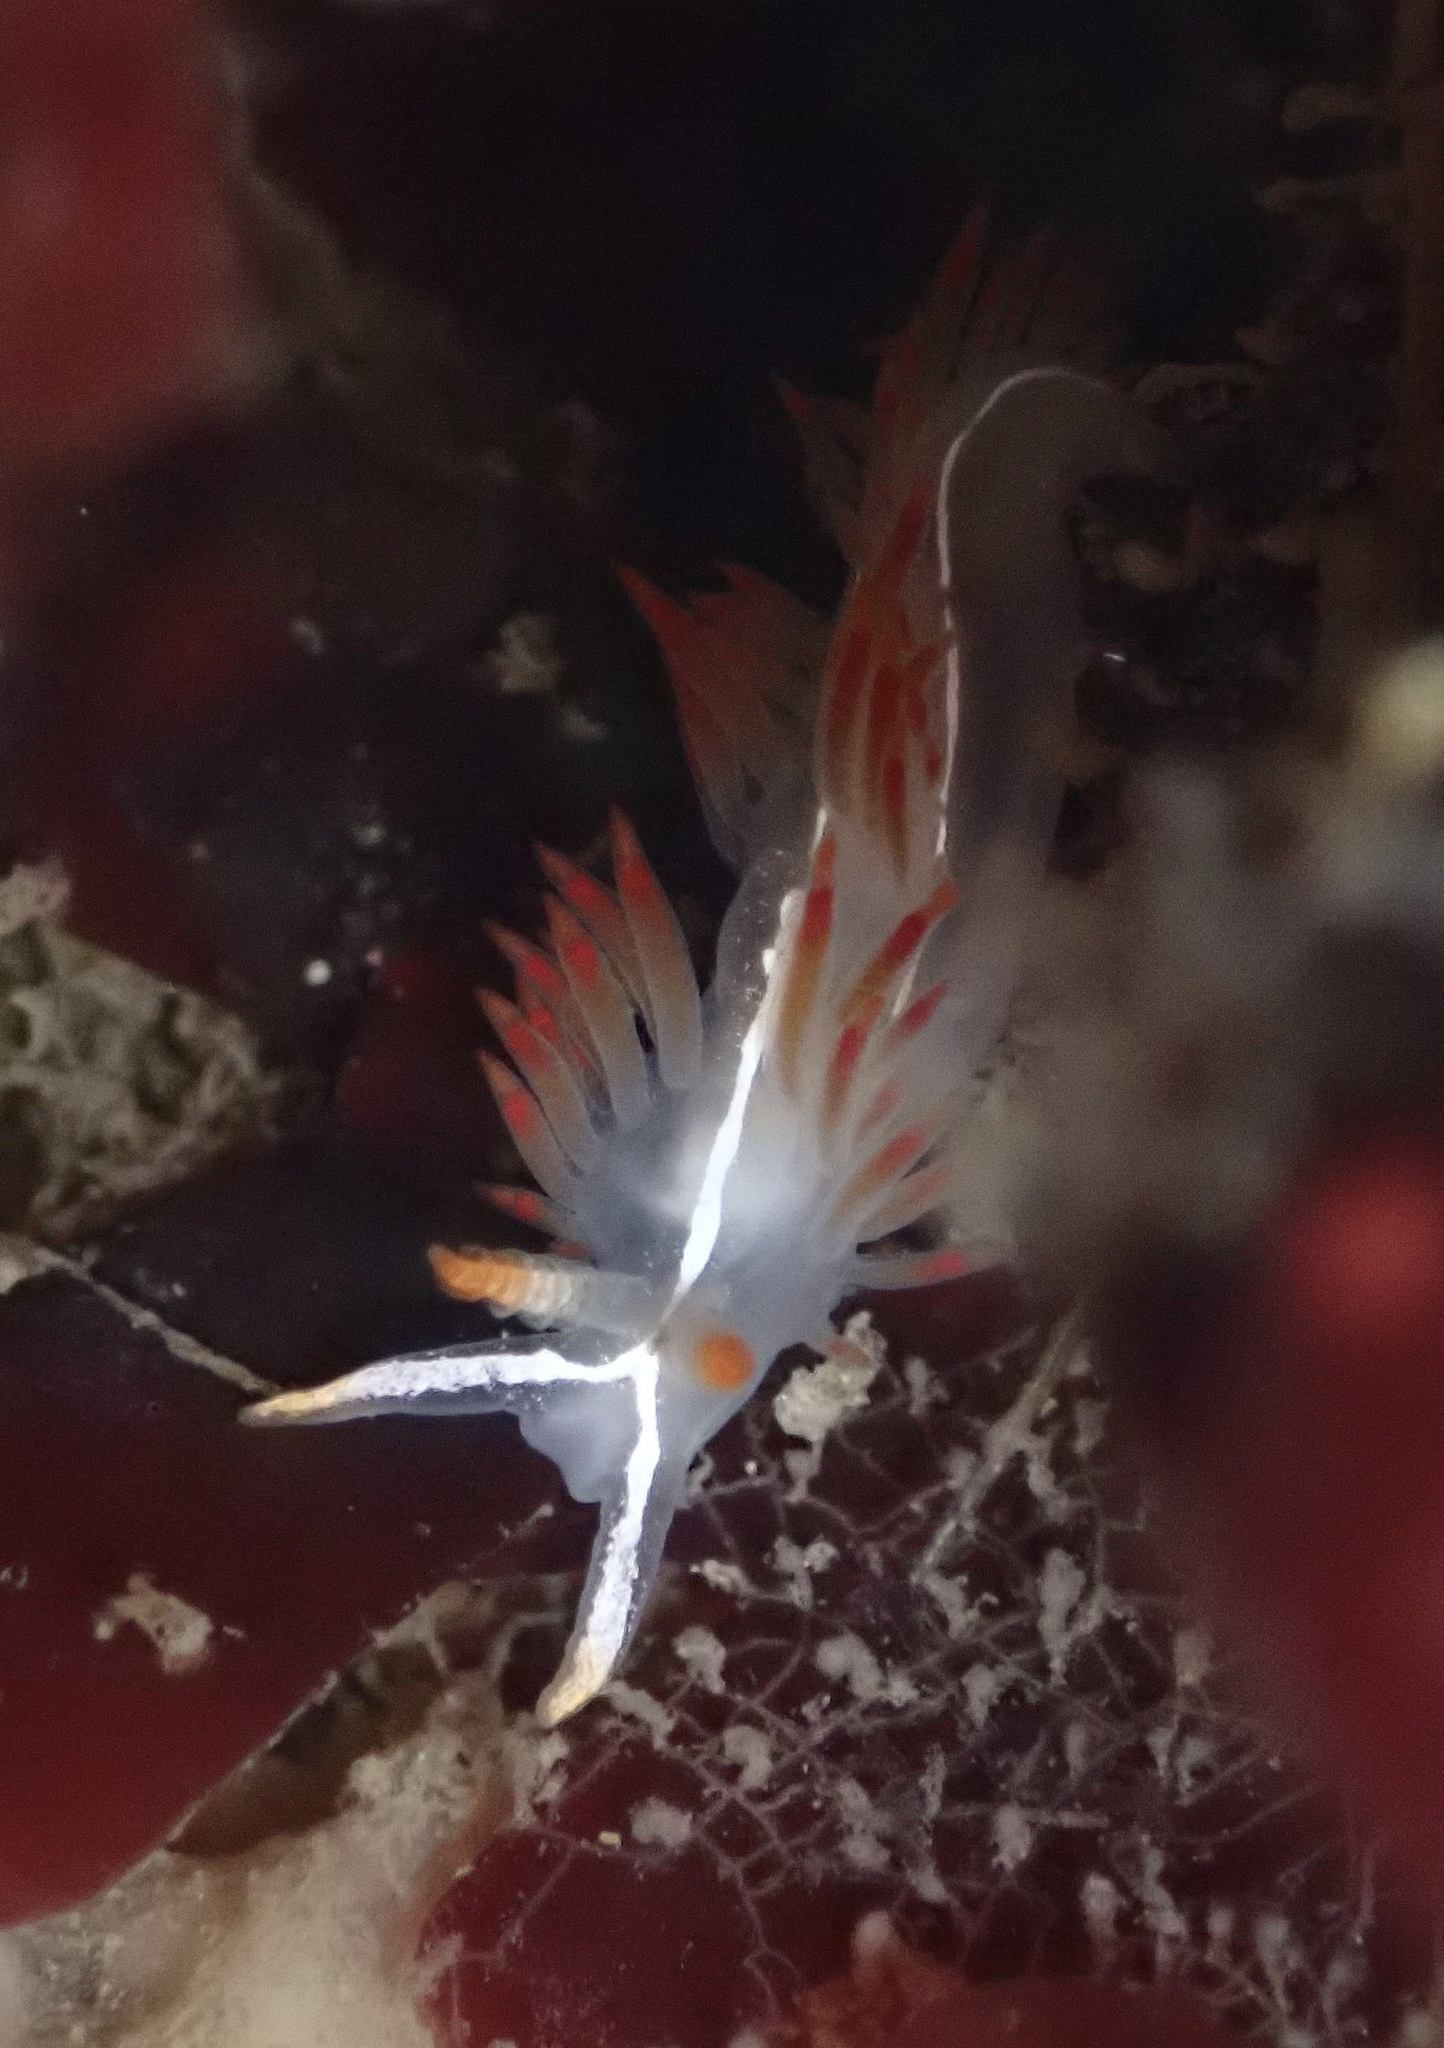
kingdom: Animalia
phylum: Mollusca
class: Gastropoda
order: Nudibranchia
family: Coryphellidae
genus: Coryphella
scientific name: Coryphella trilineata
